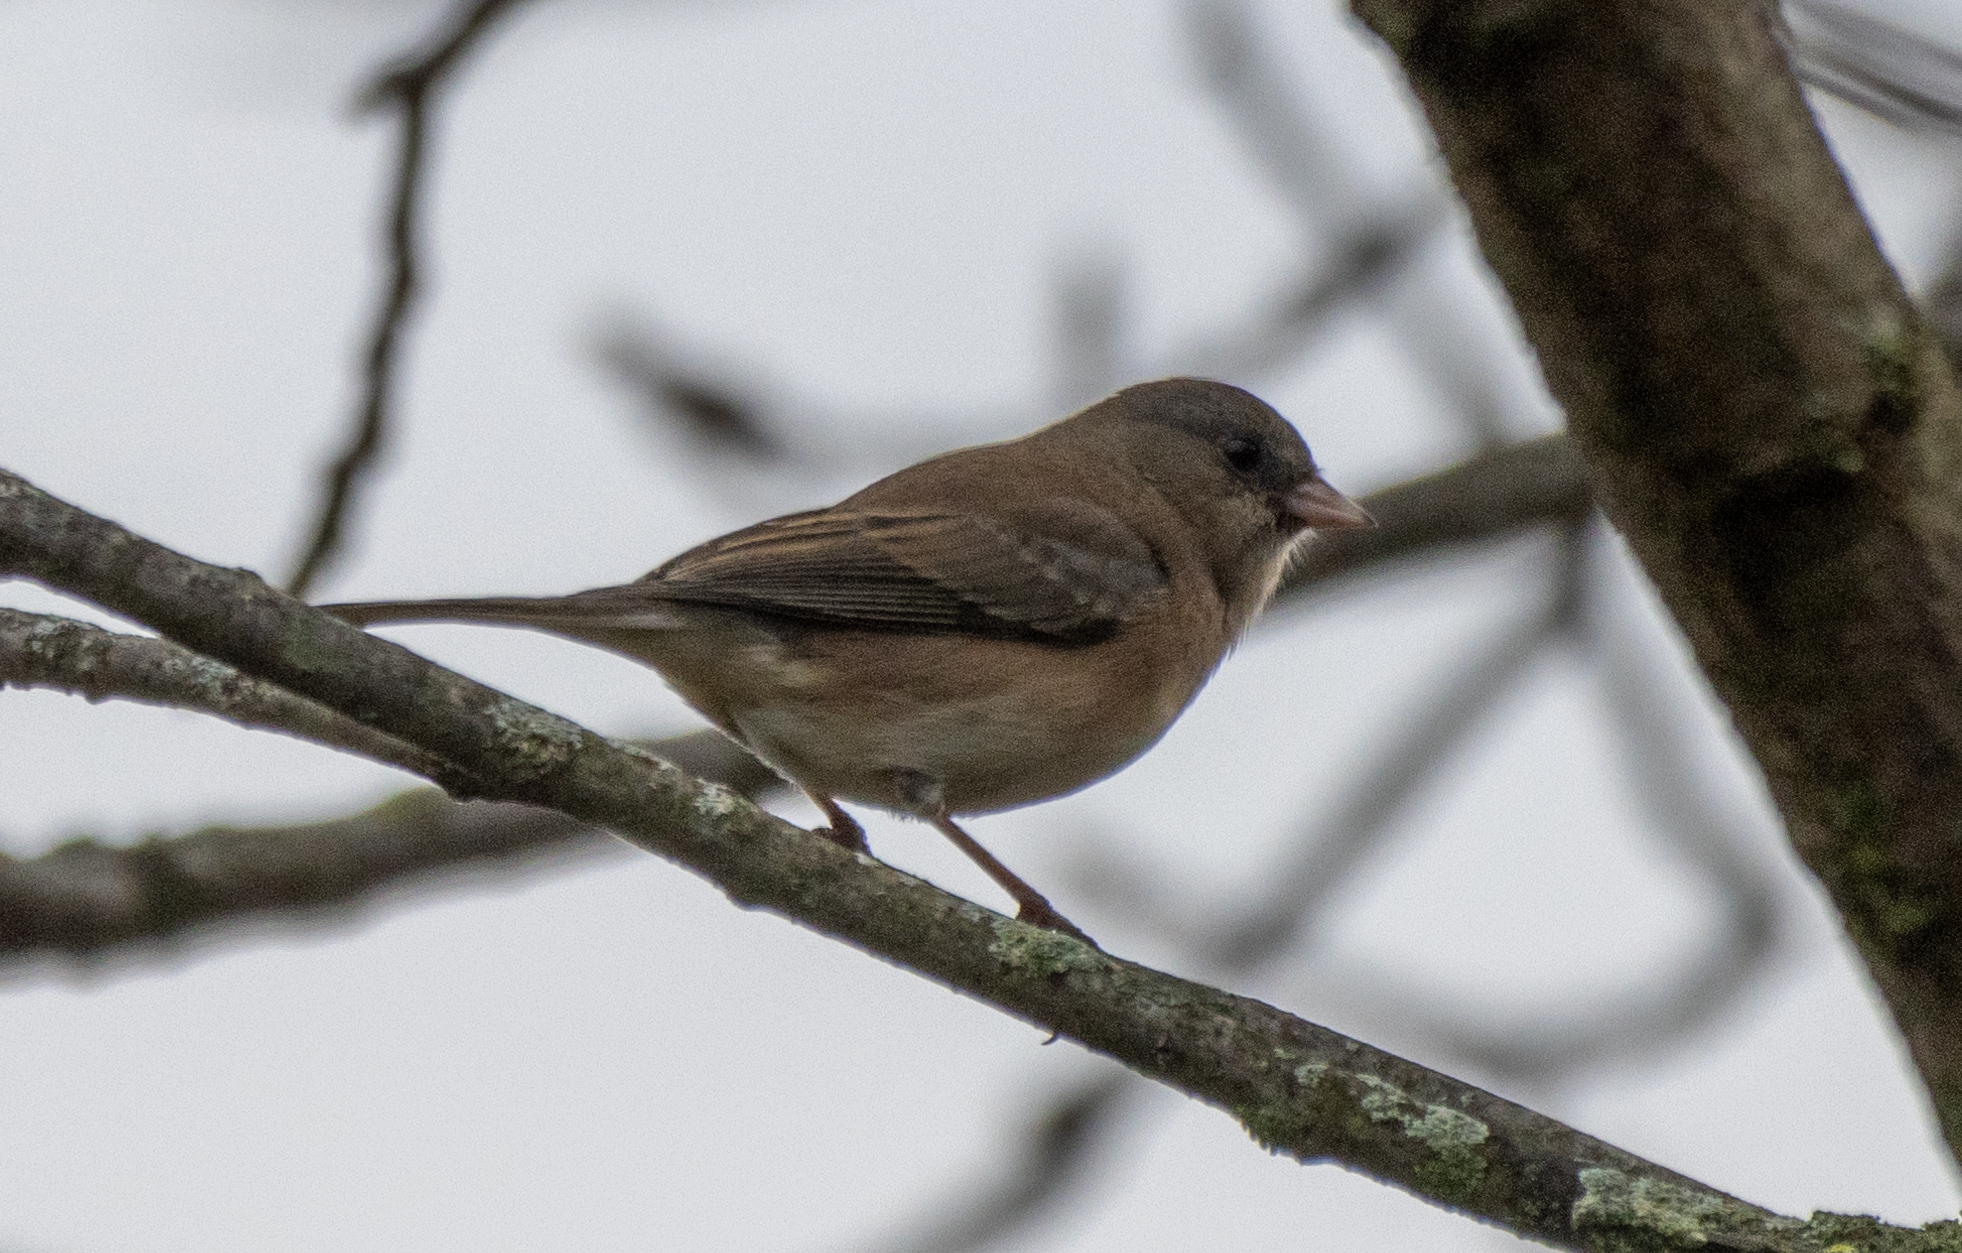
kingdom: Animalia
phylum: Chordata
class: Aves
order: Passeriformes
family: Passerellidae
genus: Junco
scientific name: Junco hyemalis
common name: Dark-eyed junco
